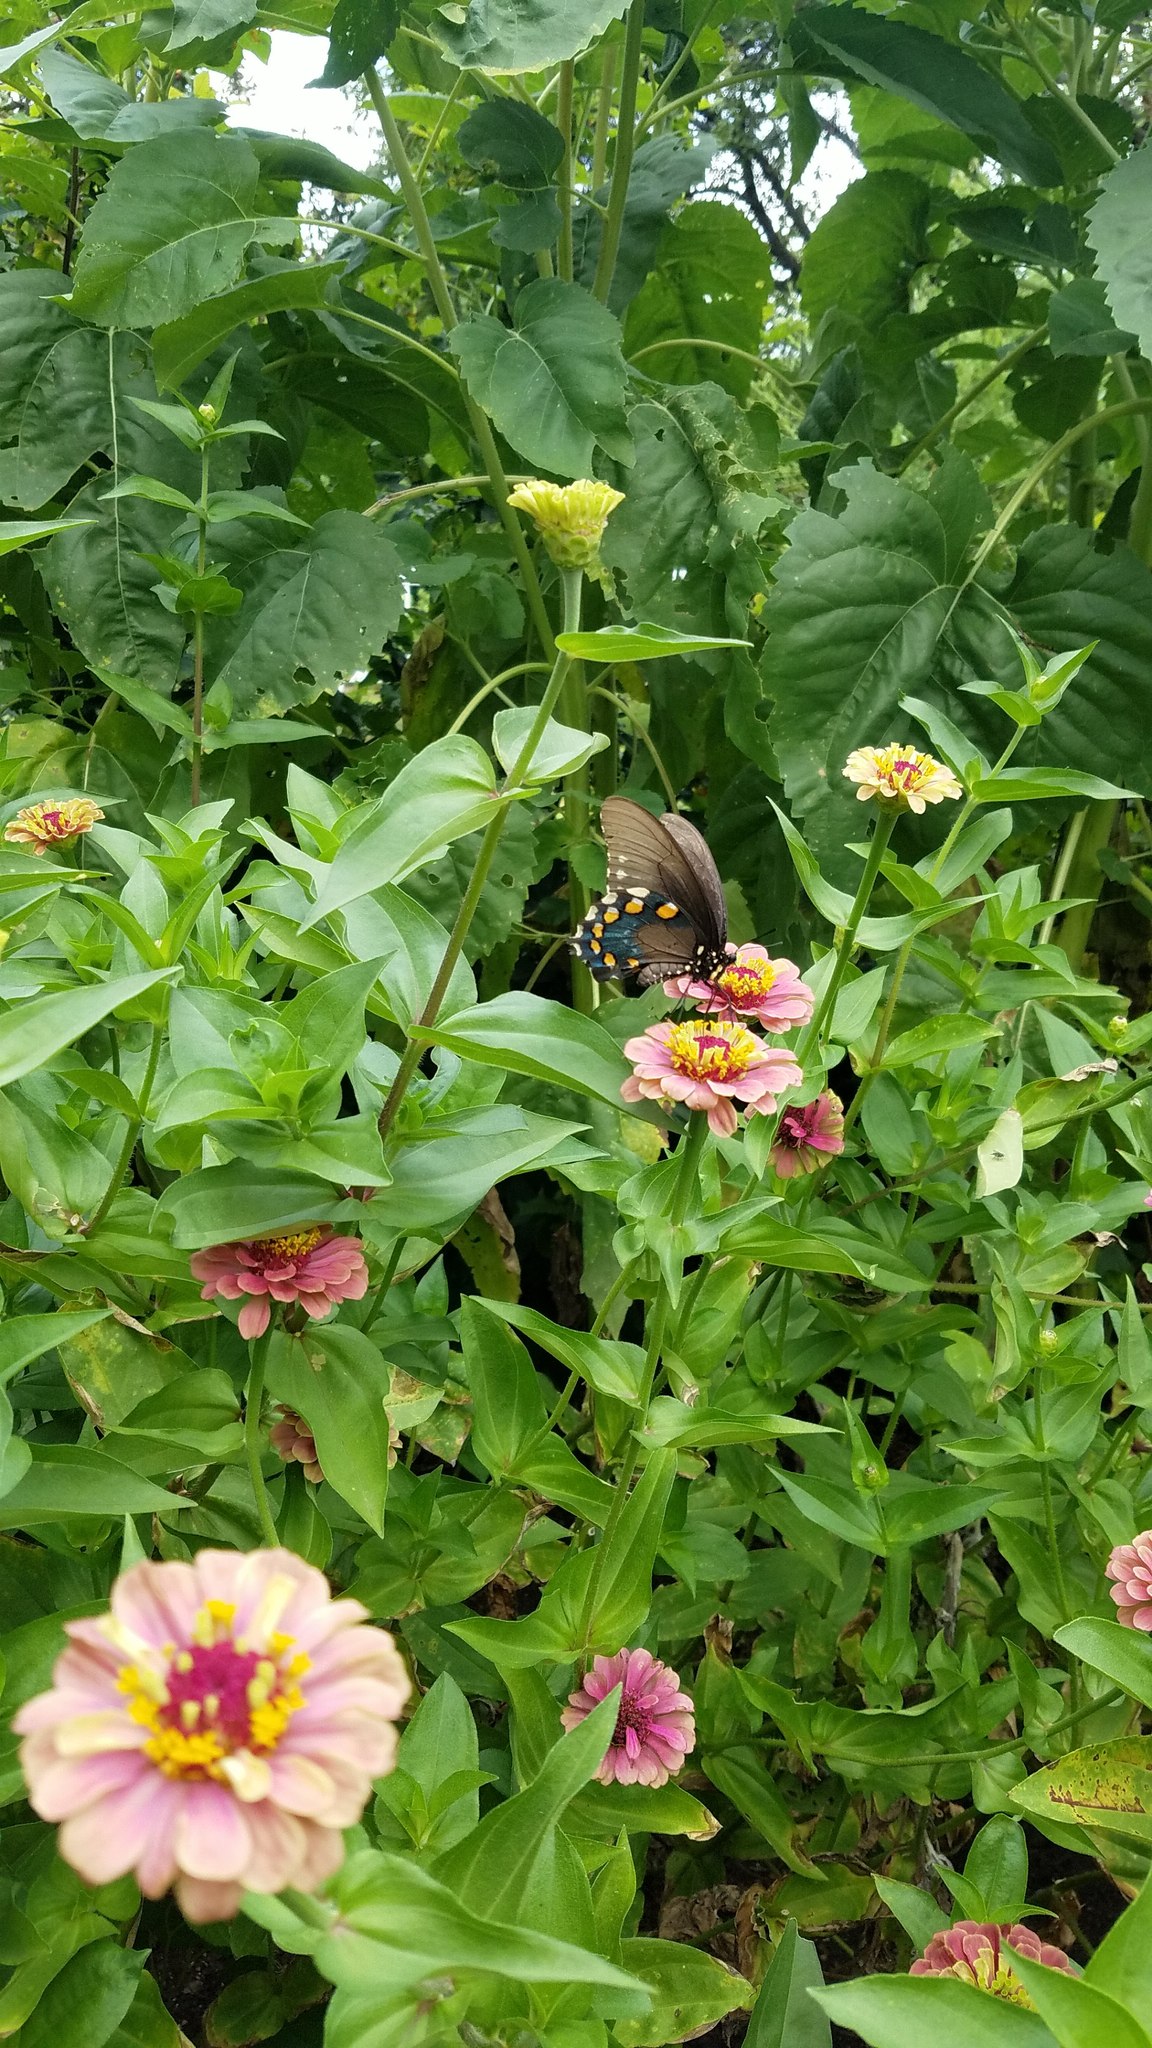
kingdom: Animalia
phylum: Arthropoda
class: Insecta
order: Lepidoptera
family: Papilionidae
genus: Battus
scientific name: Battus philenor
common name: Pipevine swallowtail
